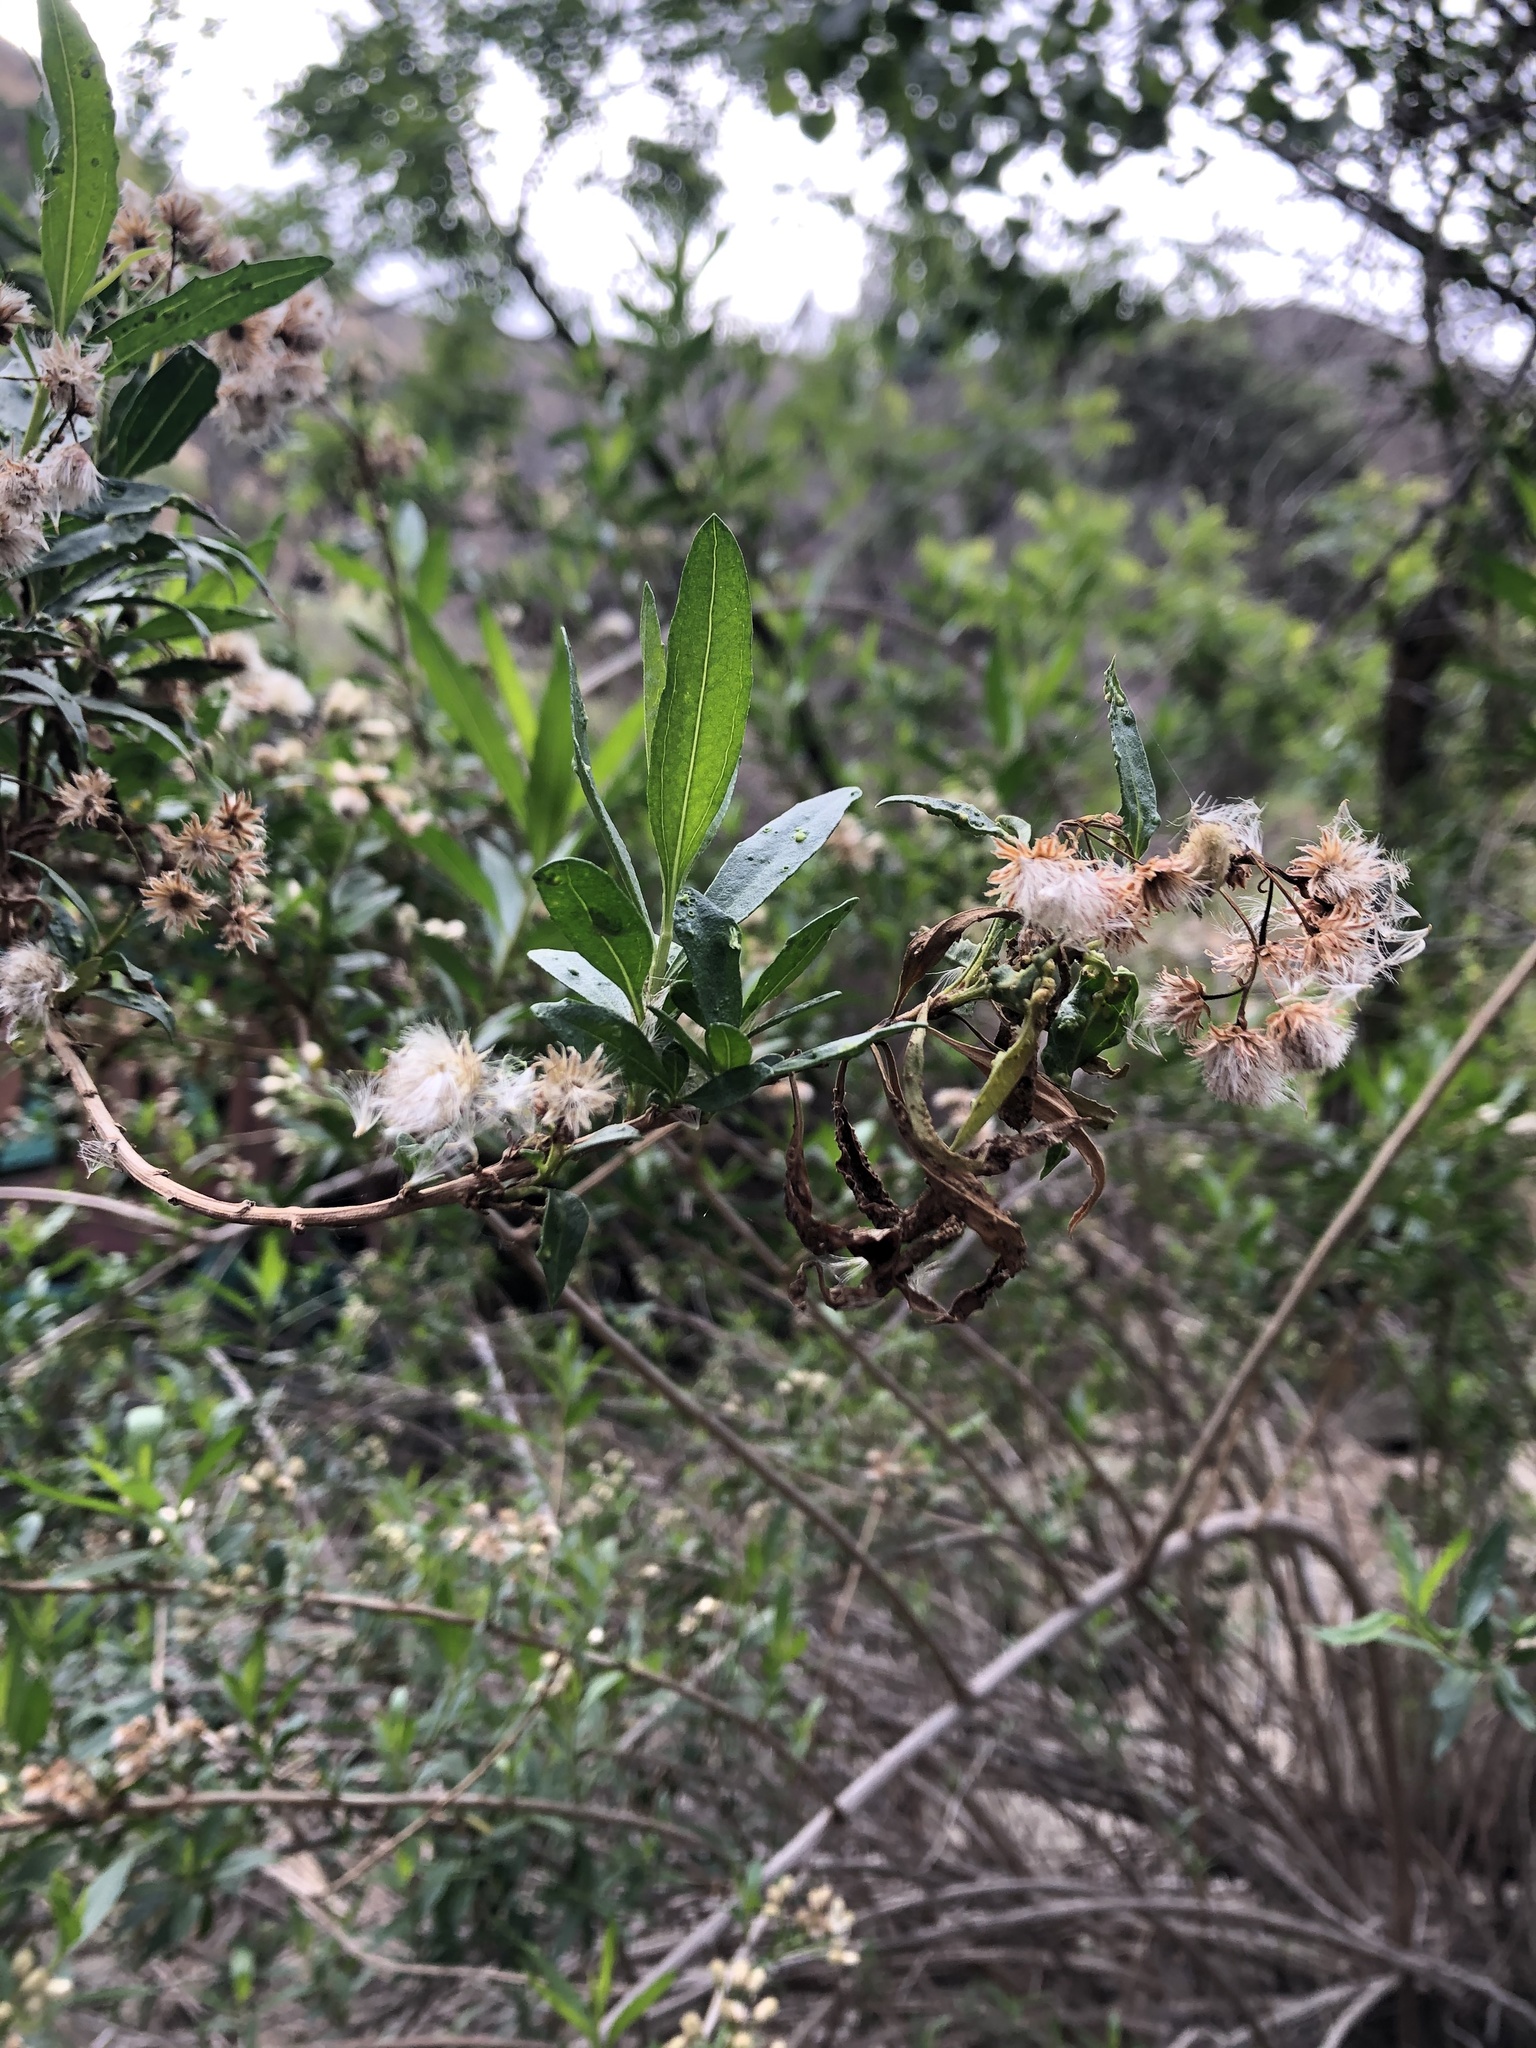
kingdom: Plantae
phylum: Tracheophyta
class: Magnoliopsida
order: Asterales
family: Asteraceae
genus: Baccharis
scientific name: Baccharis salicifolia
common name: Sticky baccharis
